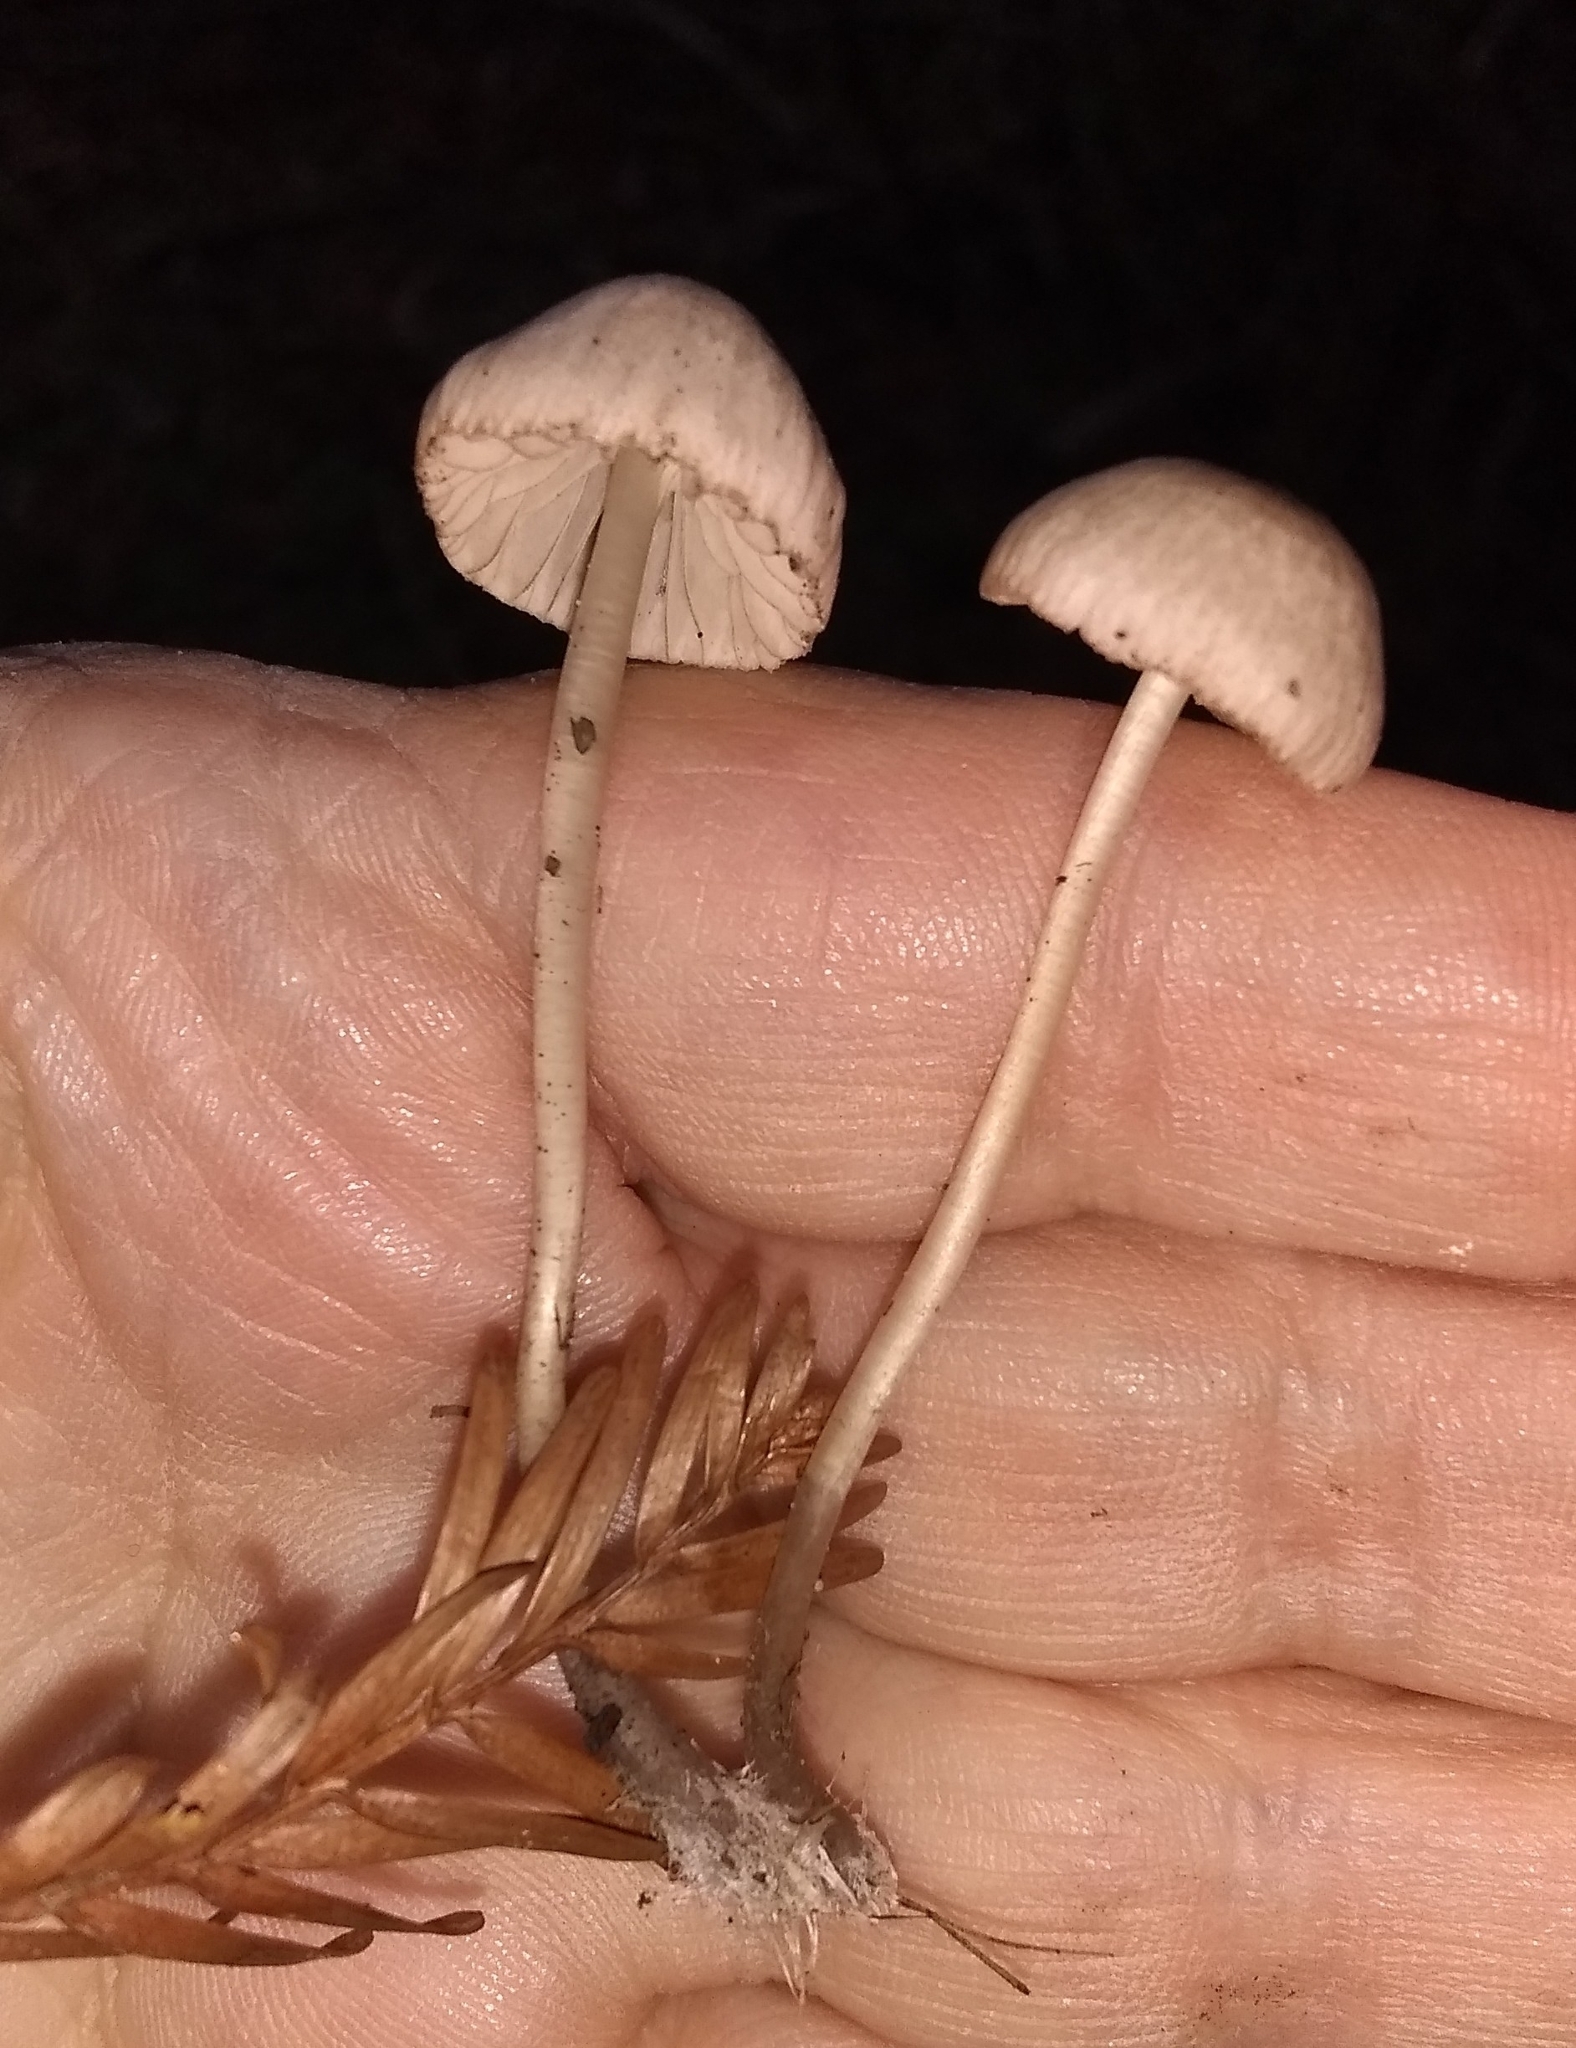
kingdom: Fungi
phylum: Basidiomycota
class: Agaricomycetes
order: Agaricales
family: Mycenaceae
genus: Mycena
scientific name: Mycena capillaripes
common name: Pinkedge bonnet
